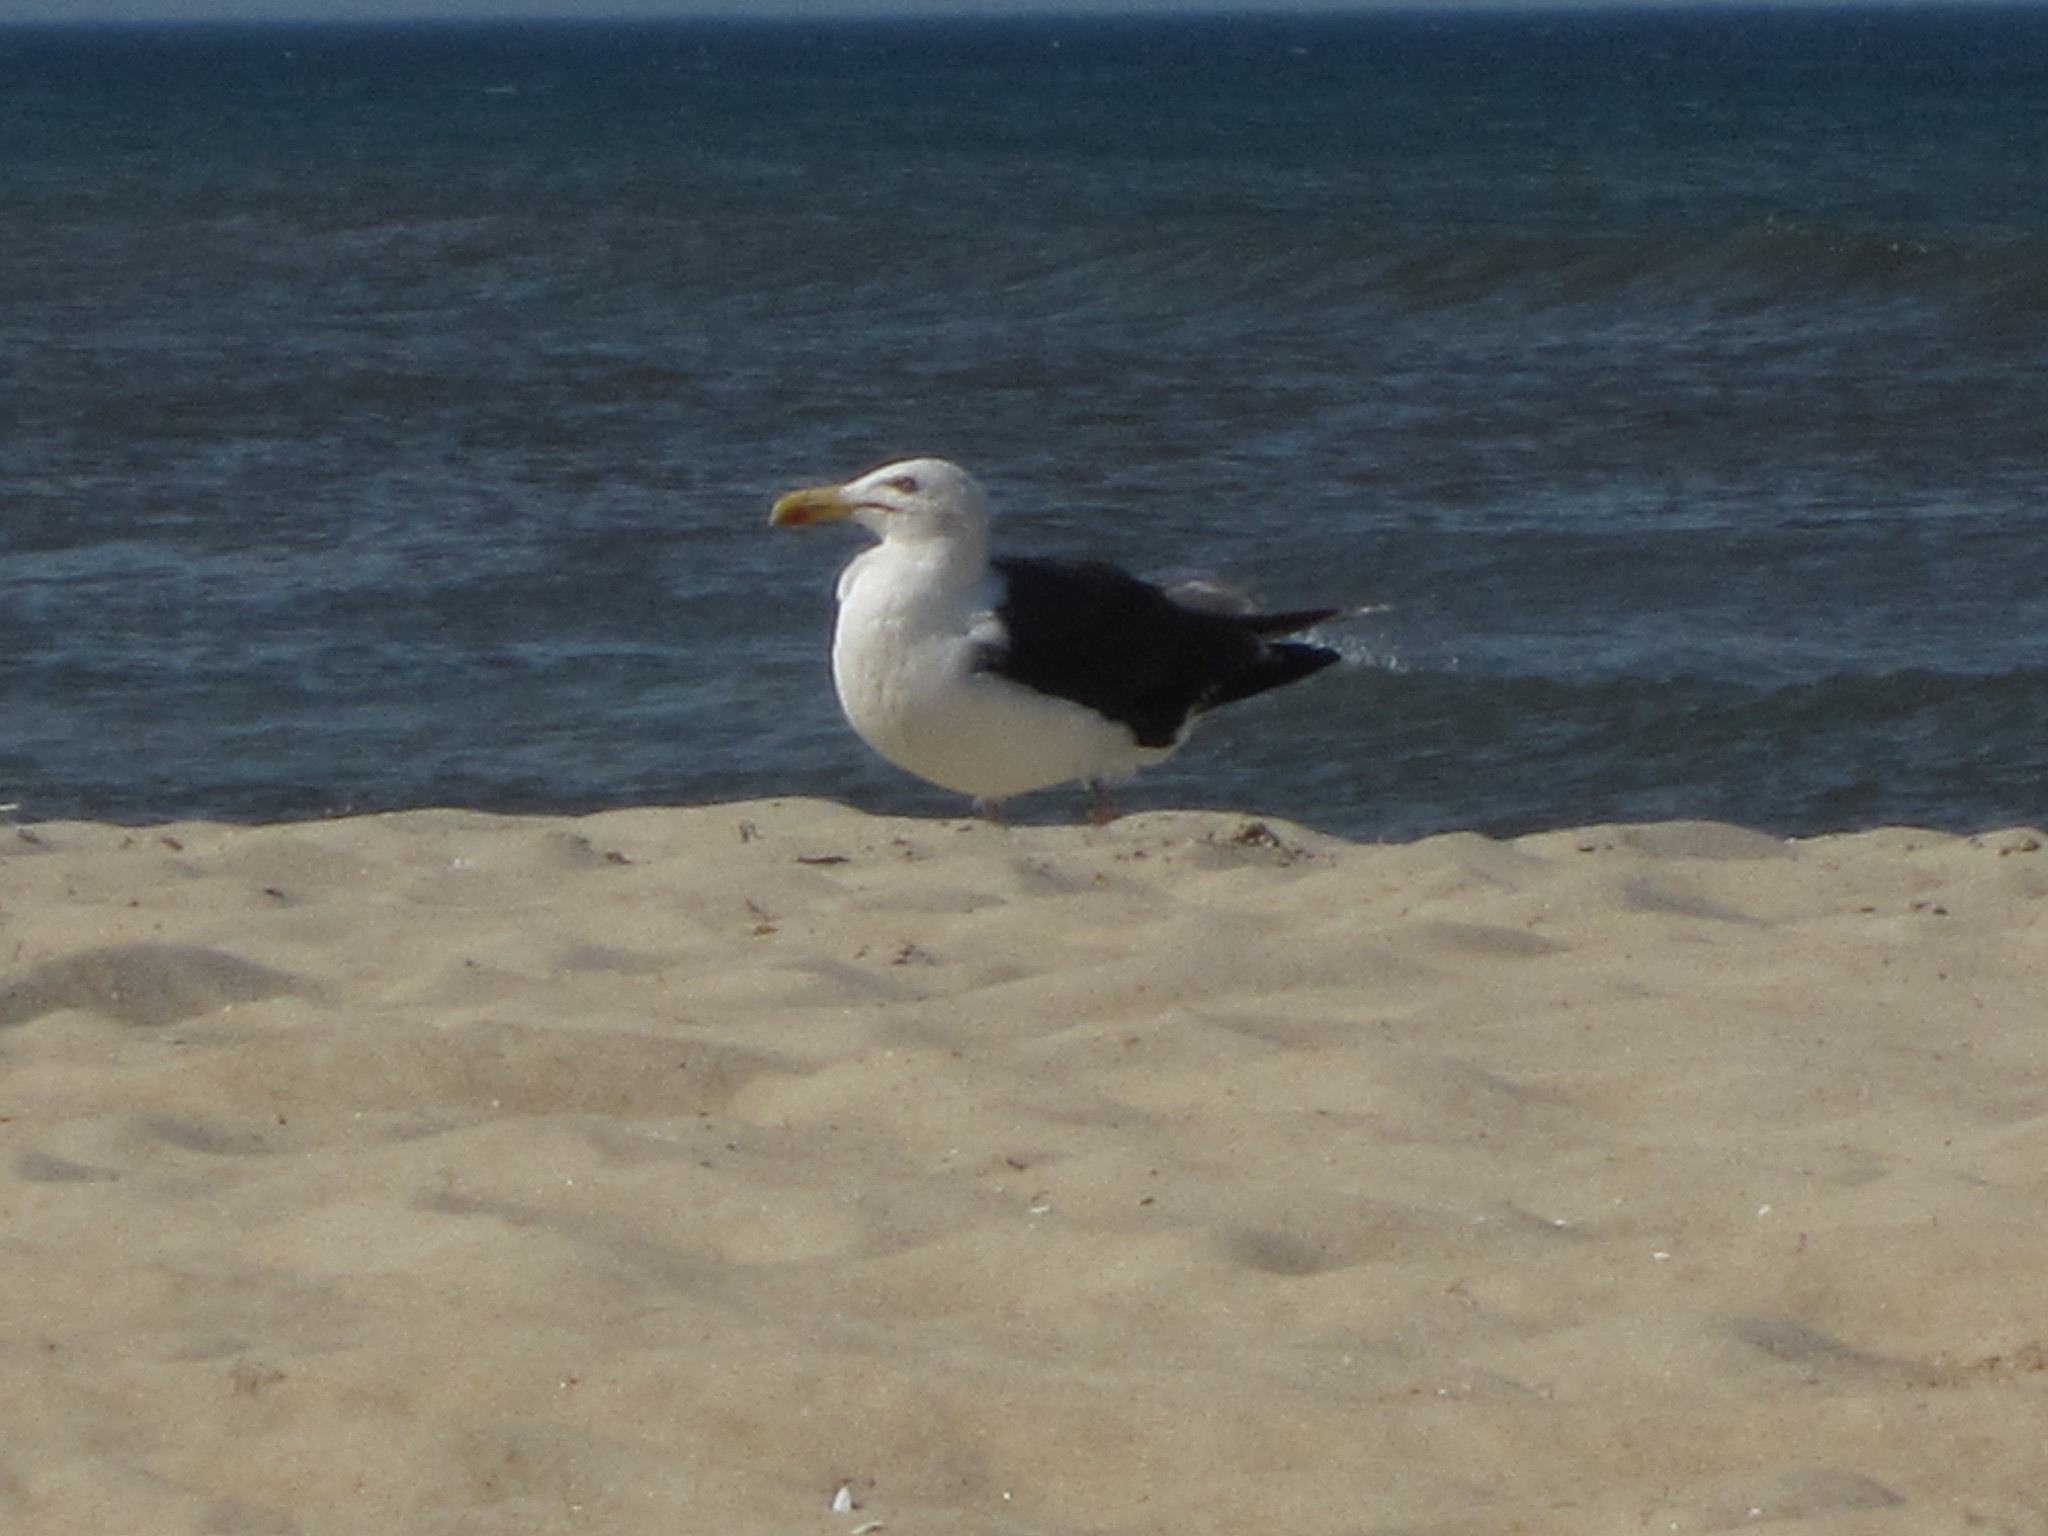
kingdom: Animalia
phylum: Chordata
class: Aves
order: Charadriiformes
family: Laridae
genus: Larus
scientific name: Larus marinus
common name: Great black-backed gull
